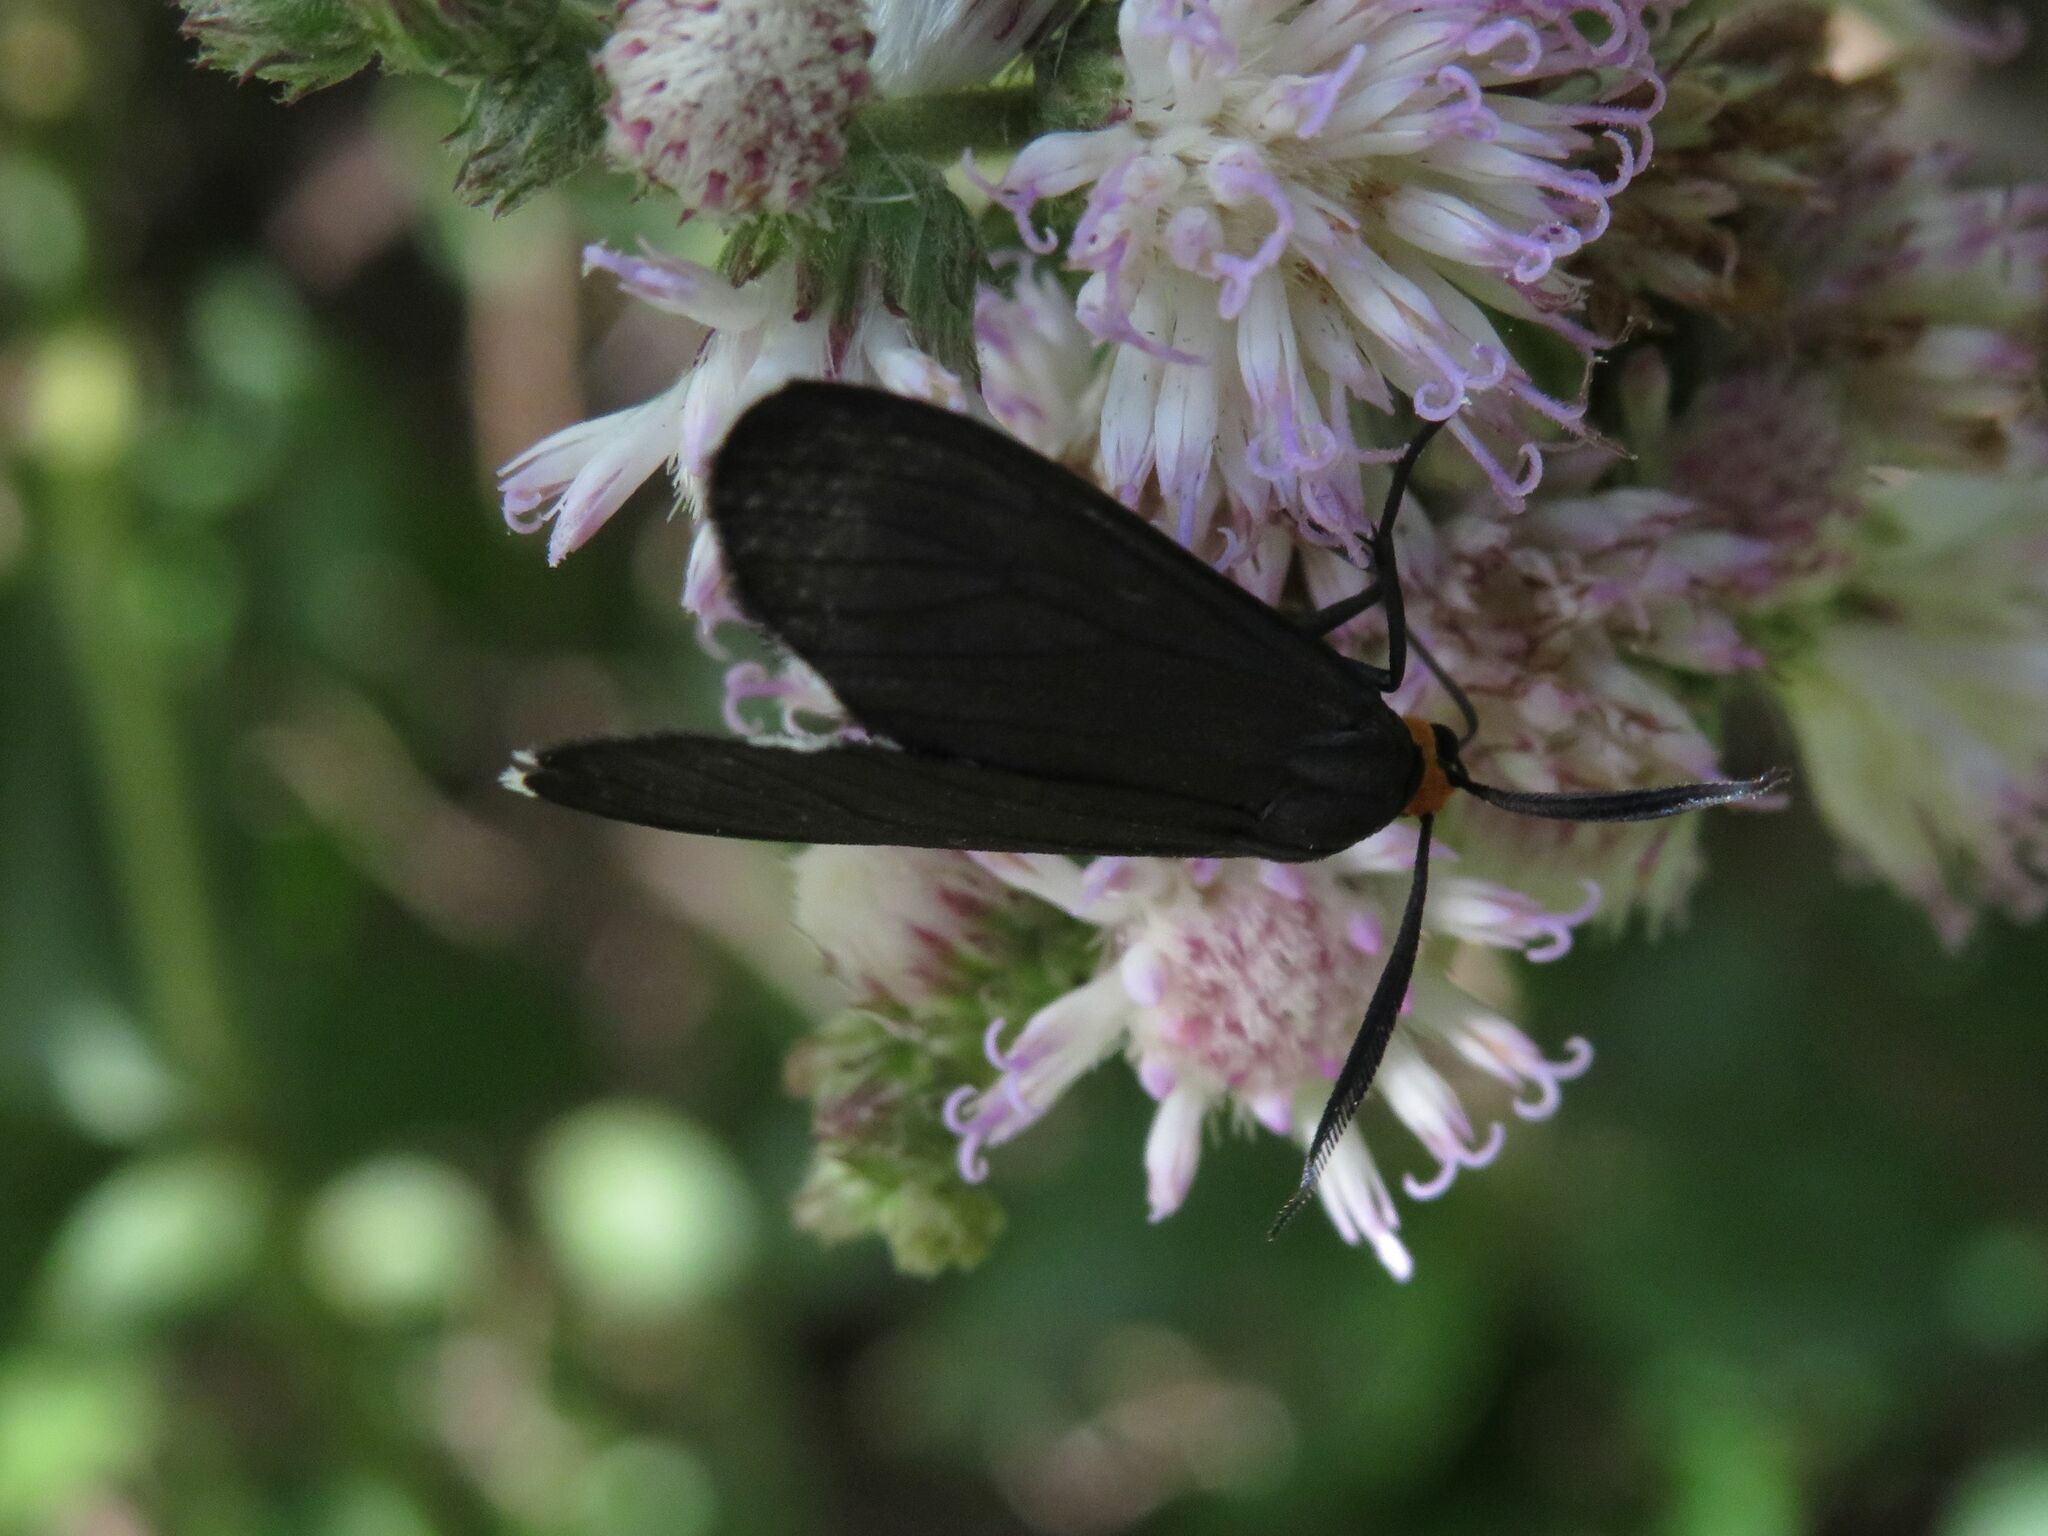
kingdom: Animalia
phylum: Arthropoda
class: Insecta
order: Lepidoptera
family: Erebidae
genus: Ctenucha
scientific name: Ctenucha rubriceps
